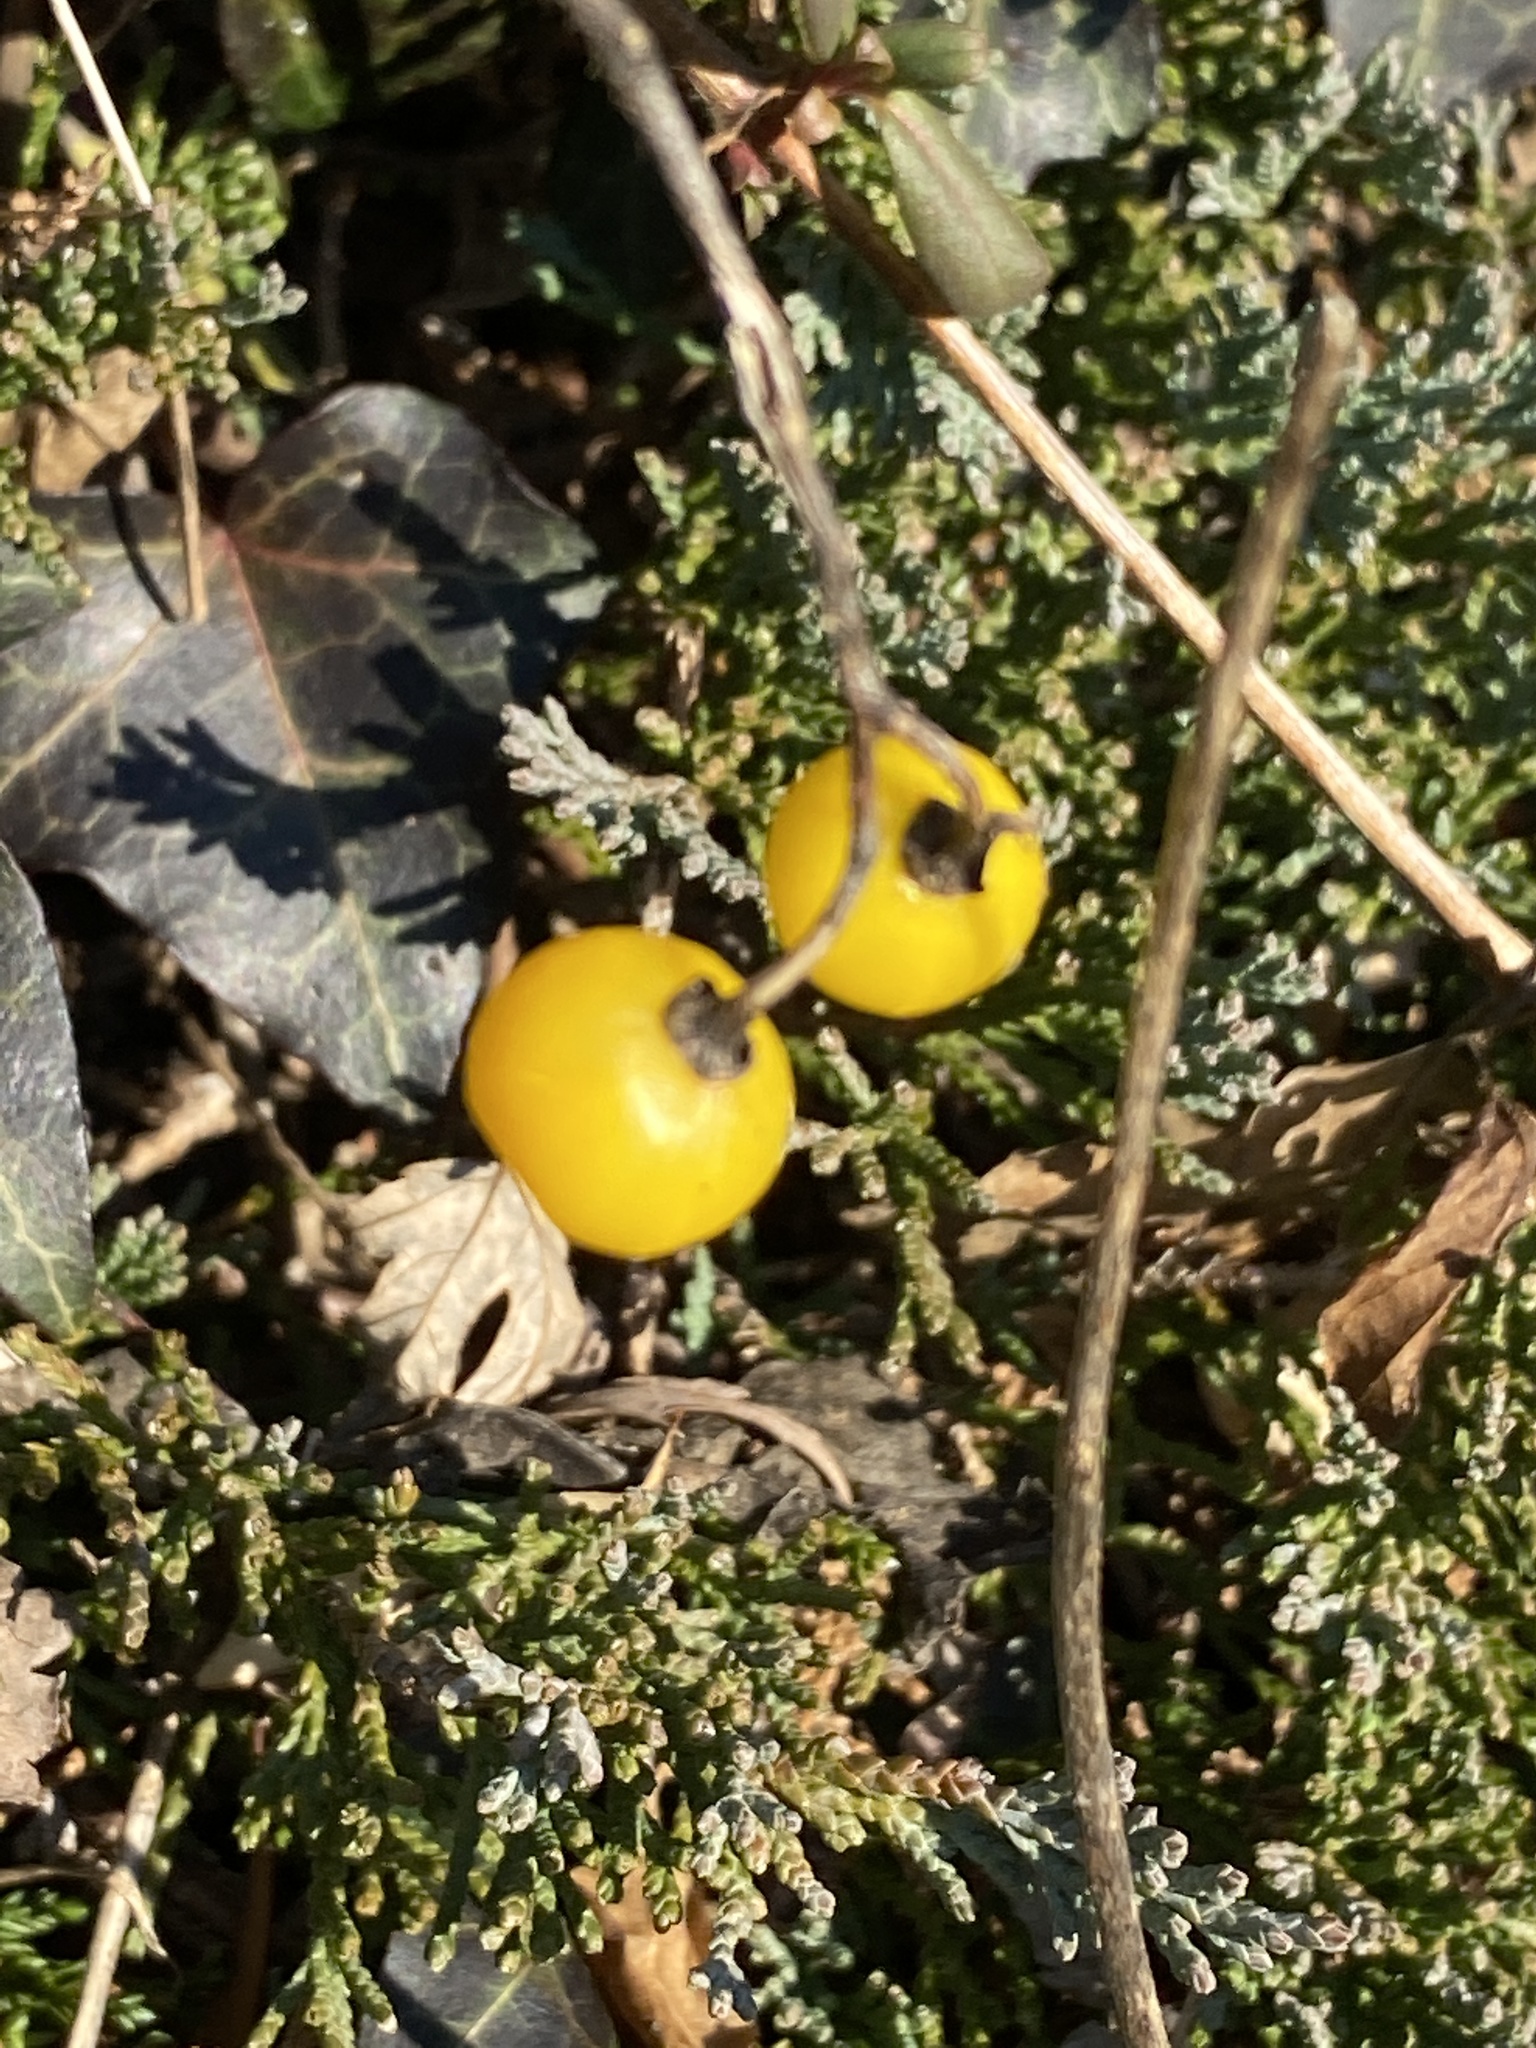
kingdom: Plantae
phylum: Tracheophyta
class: Magnoliopsida
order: Solanales
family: Solanaceae
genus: Solanum
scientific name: Solanum carolinense
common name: Horse-nettle
